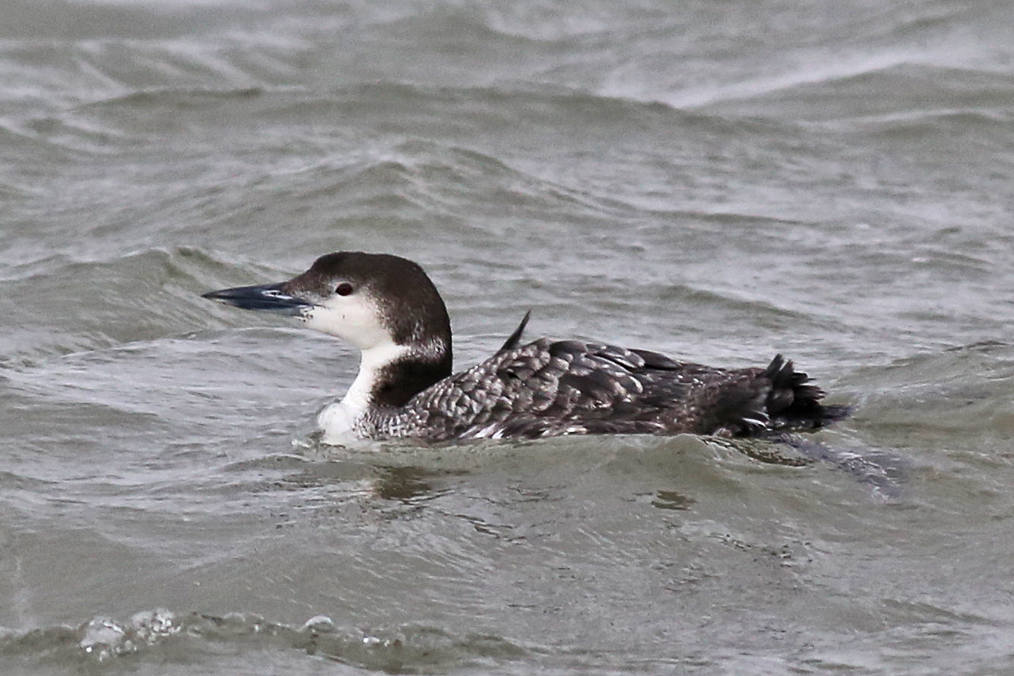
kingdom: Animalia
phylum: Chordata
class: Aves
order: Gaviiformes
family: Gaviidae
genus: Gavia
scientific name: Gavia immer
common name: Common loon
